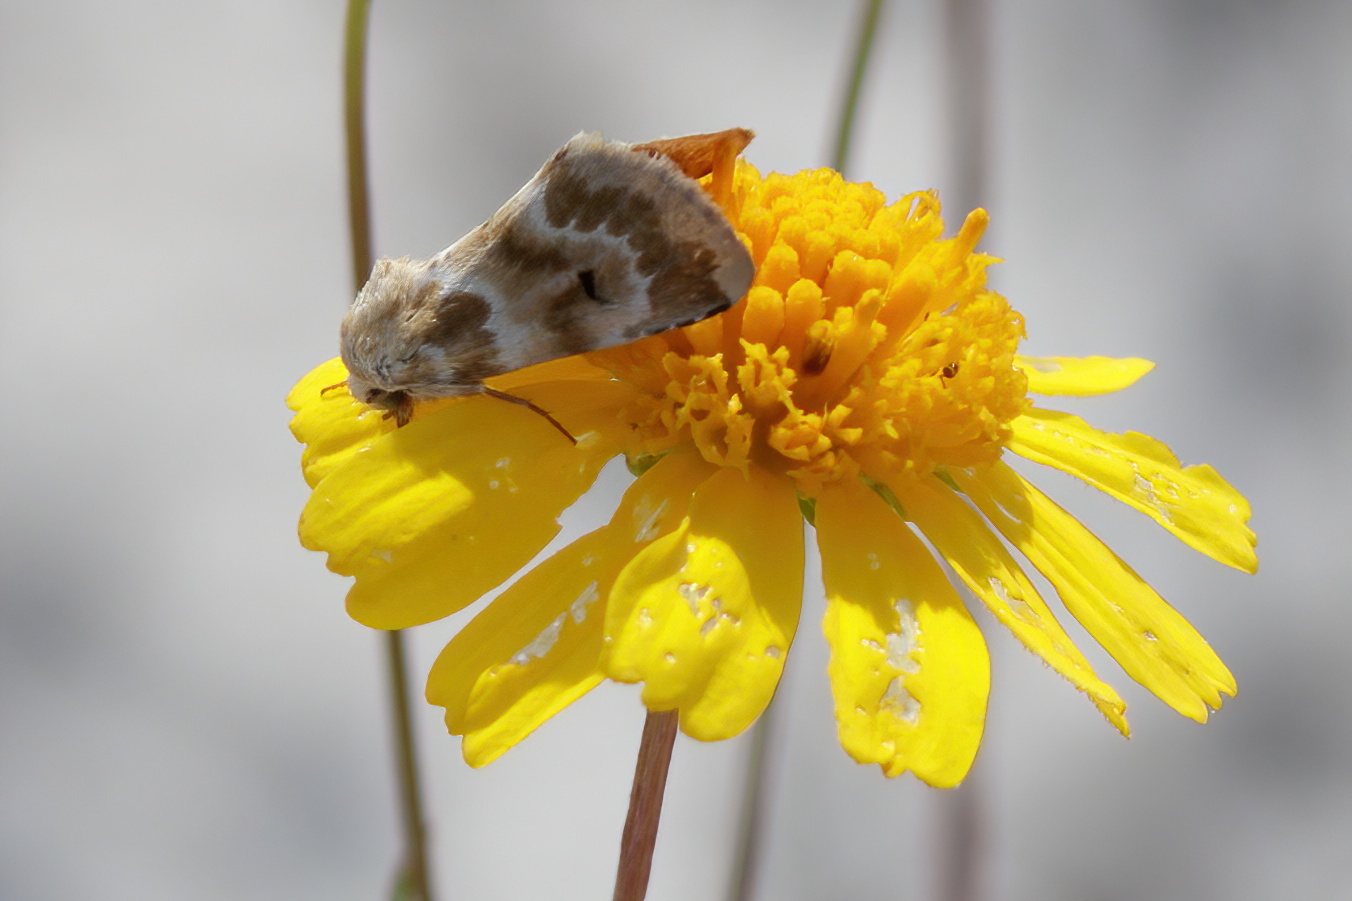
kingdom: Animalia
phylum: Arthropoda
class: Insecta
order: Lepidoptera
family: Noctuidae
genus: Schinia
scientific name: Schinia nundina
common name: Goldenrod flower moth
